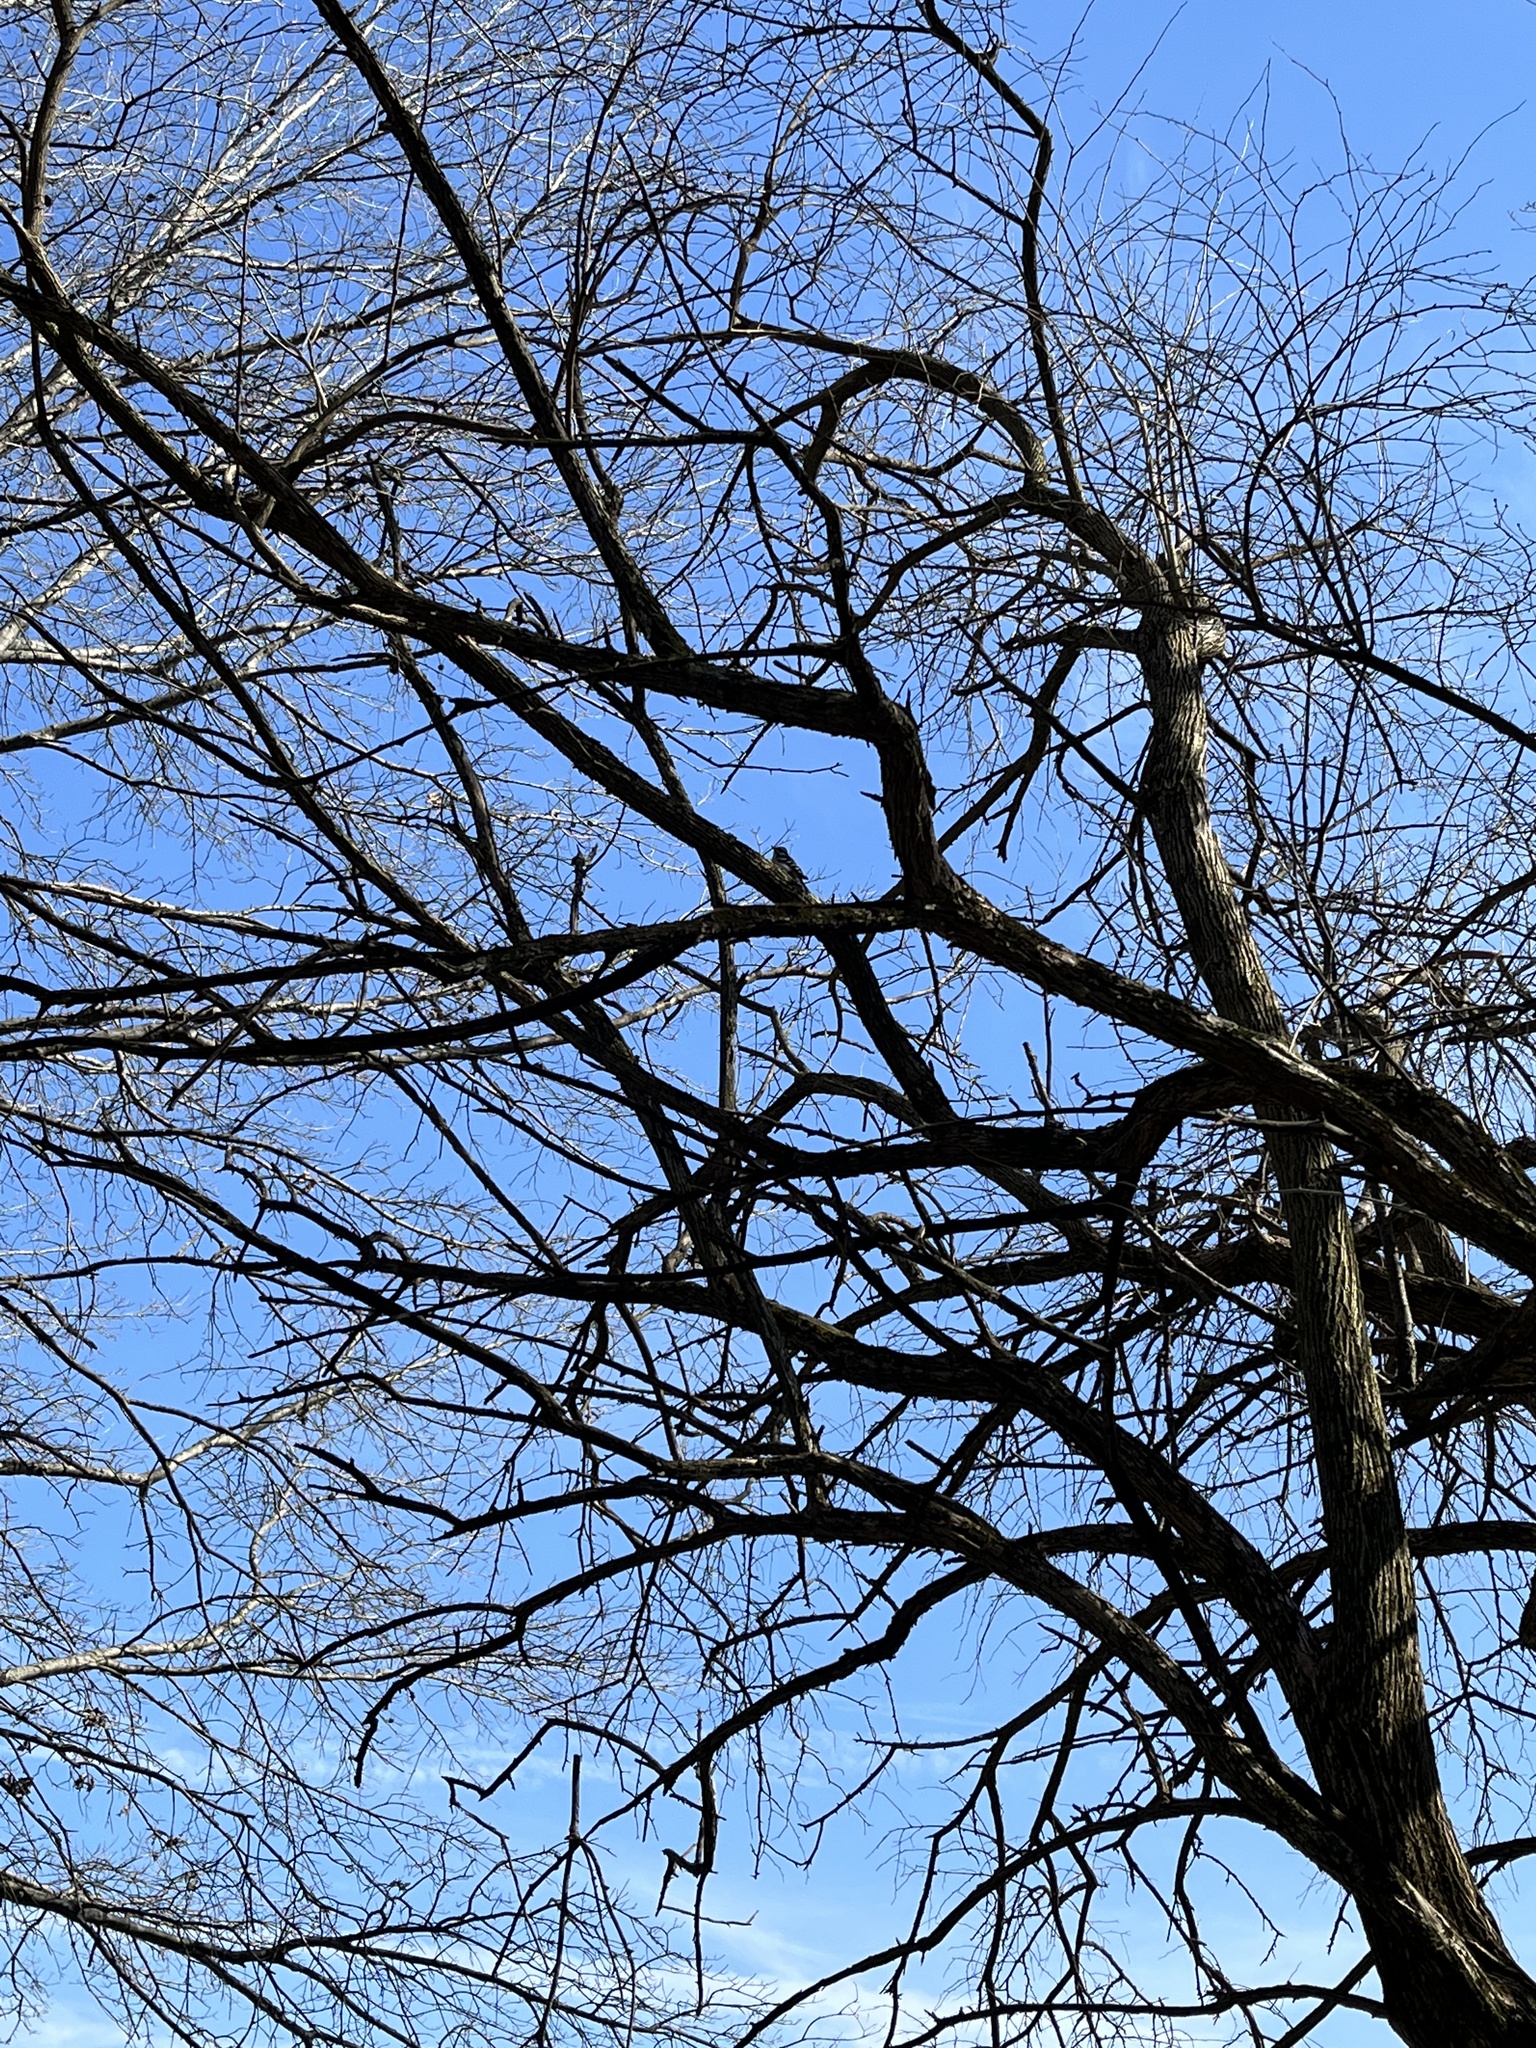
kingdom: Animalia
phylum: Chordata
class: Aves
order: Piciformes
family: Picidae
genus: Dryobates
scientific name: Dryobates pubescens
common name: Downy woodpecker
